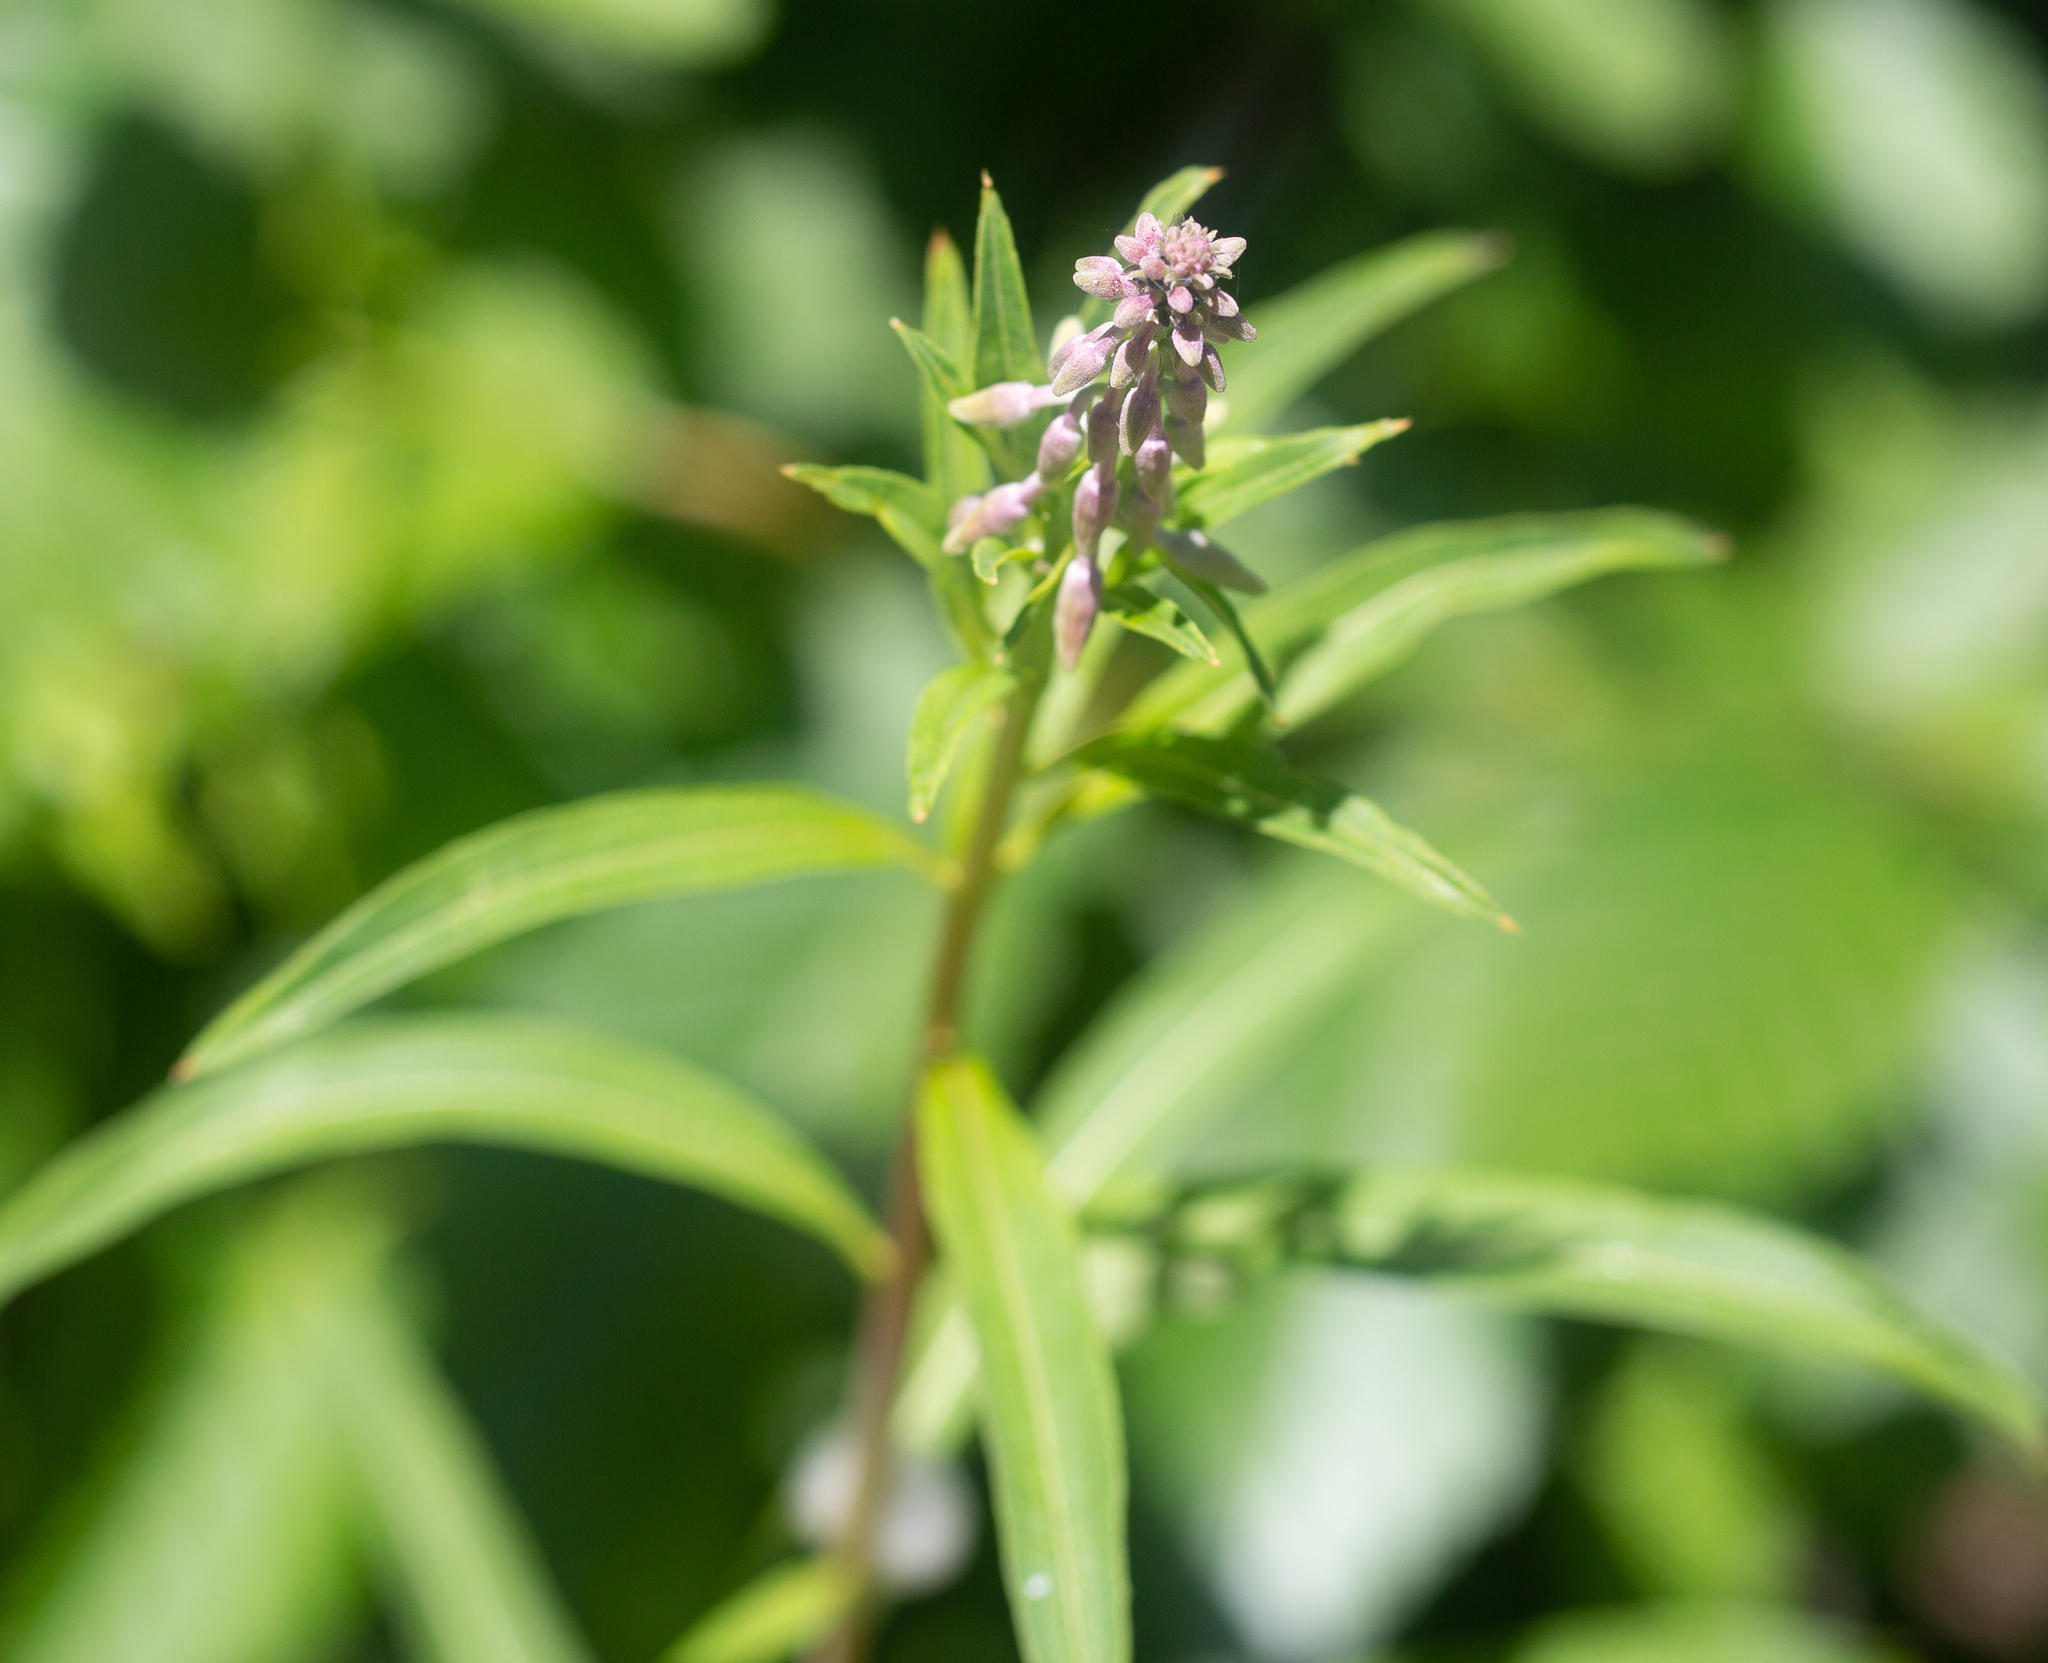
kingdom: Plantae
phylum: Tracheophyta
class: Magnoliopsida
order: Myrtales
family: Onagraceae
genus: Chamaenerion
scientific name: Chamaenerion angustifolium
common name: Fireweed
